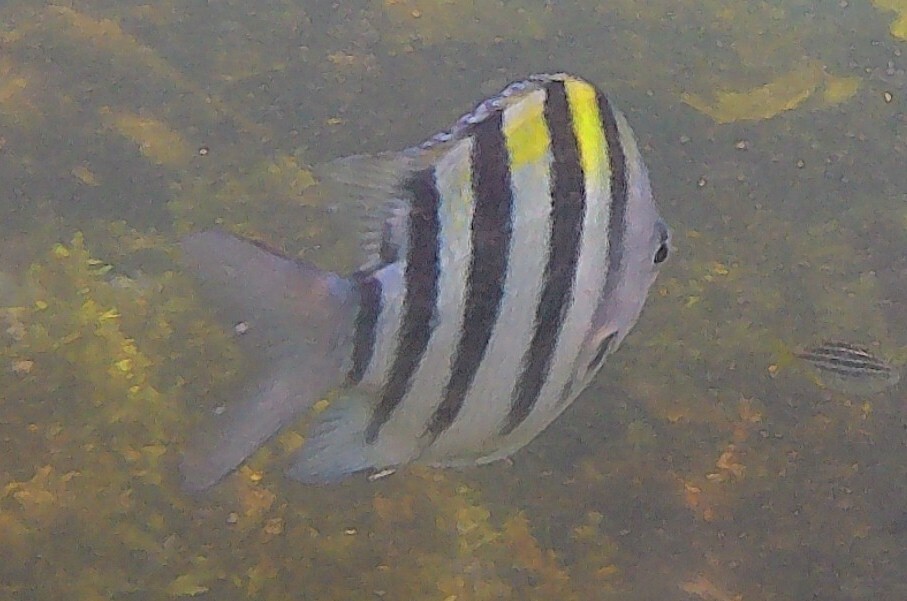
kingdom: Animalia
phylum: Chordata
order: Perciformes
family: Pomacentridae
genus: Abudefduf
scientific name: Abudefduf vaigiensis
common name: Indo-pacific sergeant
